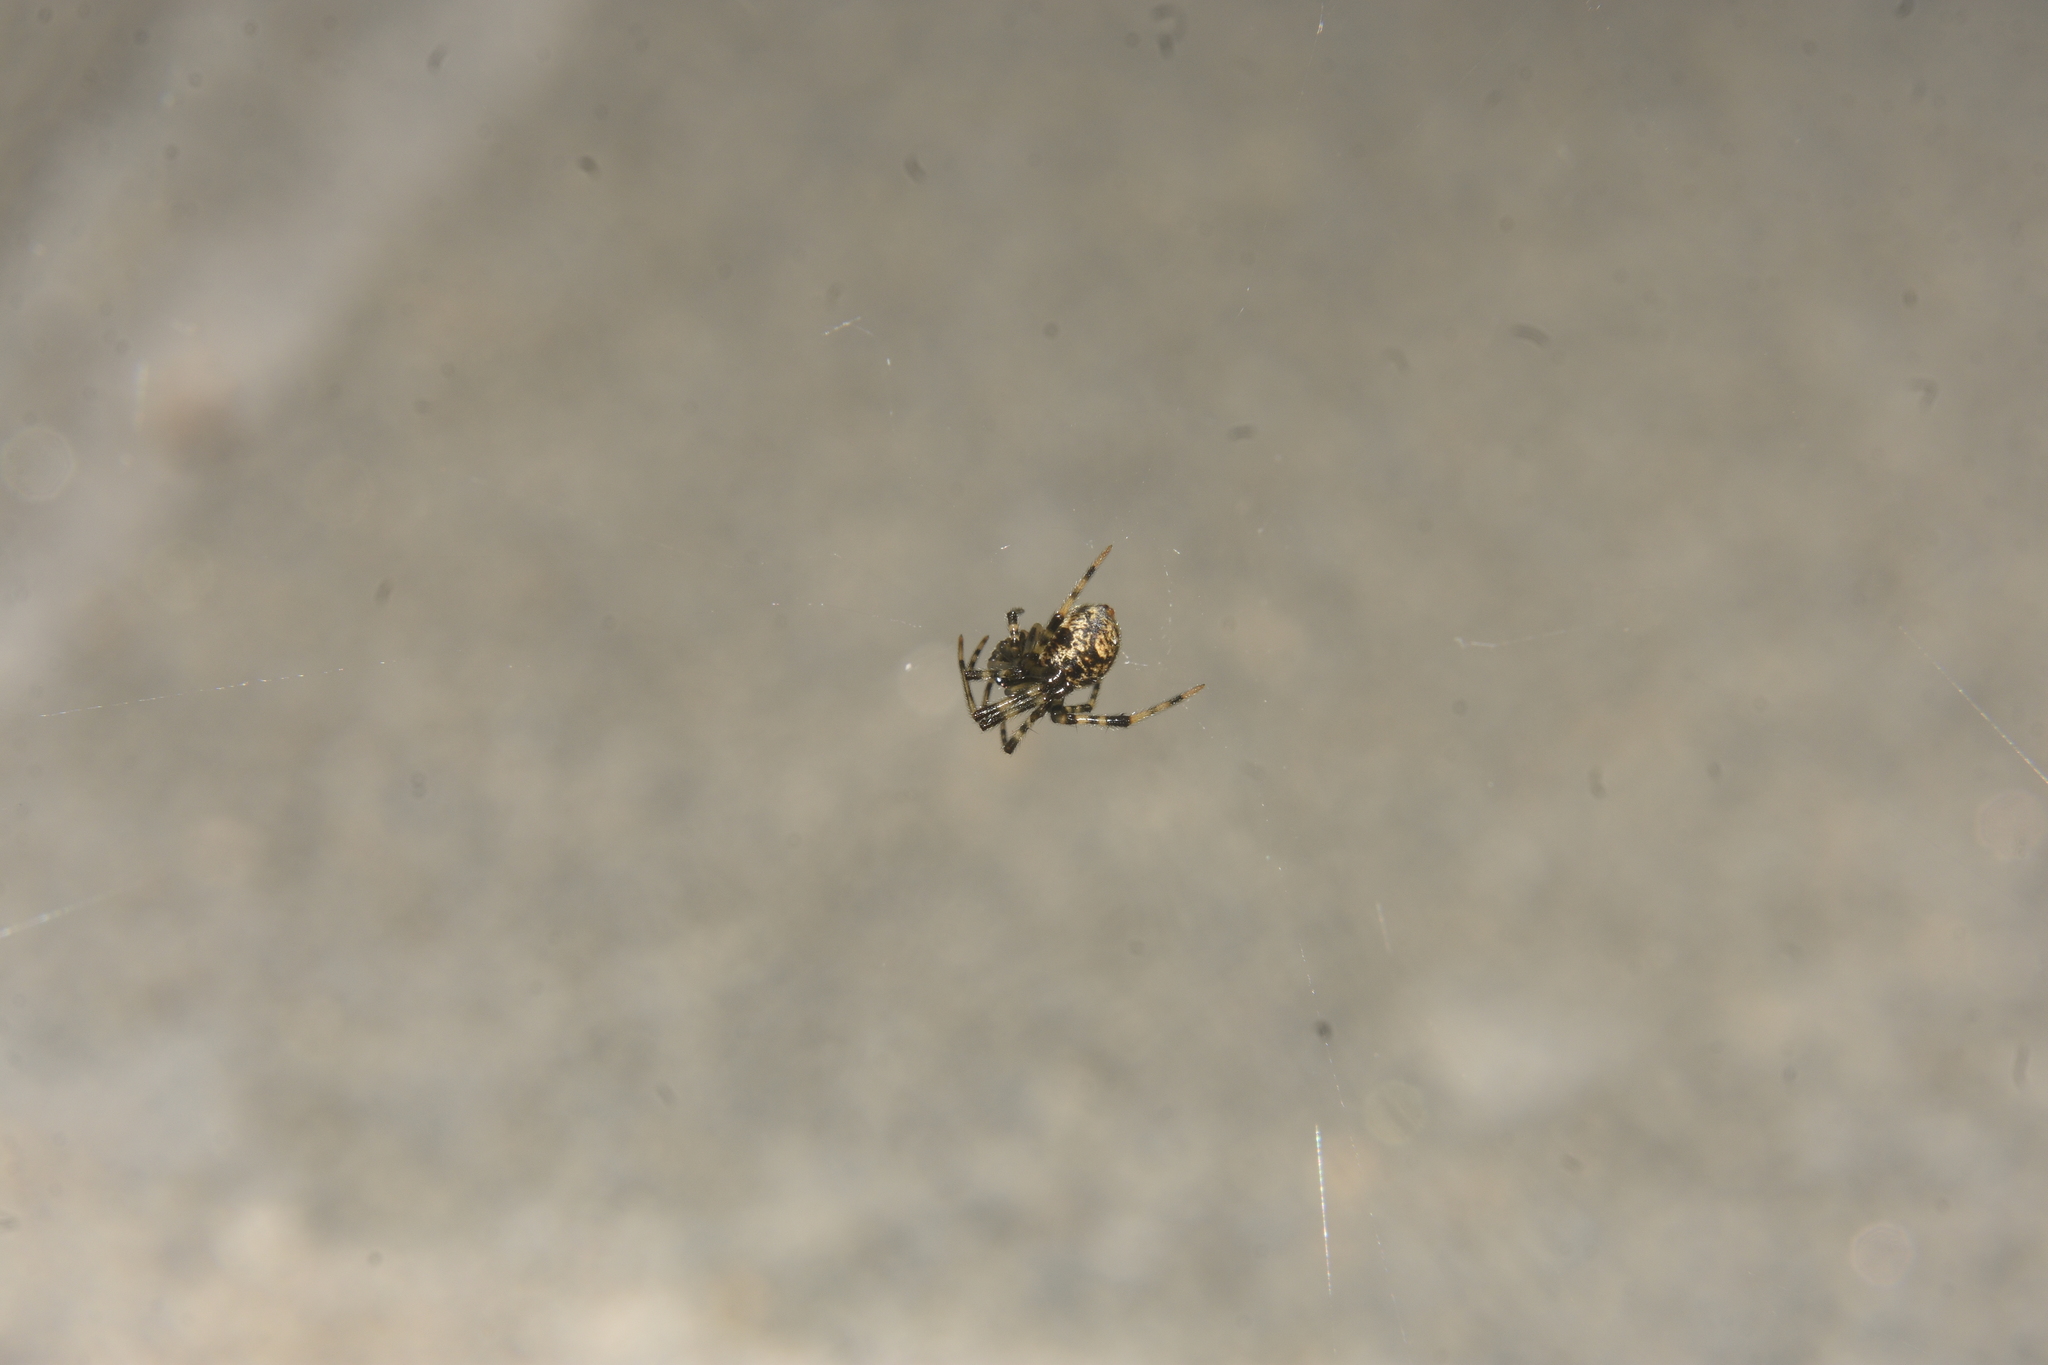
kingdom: Animalia
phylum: Arthropoda
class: Arachnida
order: Araneae
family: Theridiidae
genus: Parasteatoda
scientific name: Parasteatoda tepidariorum
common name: Common house spider
